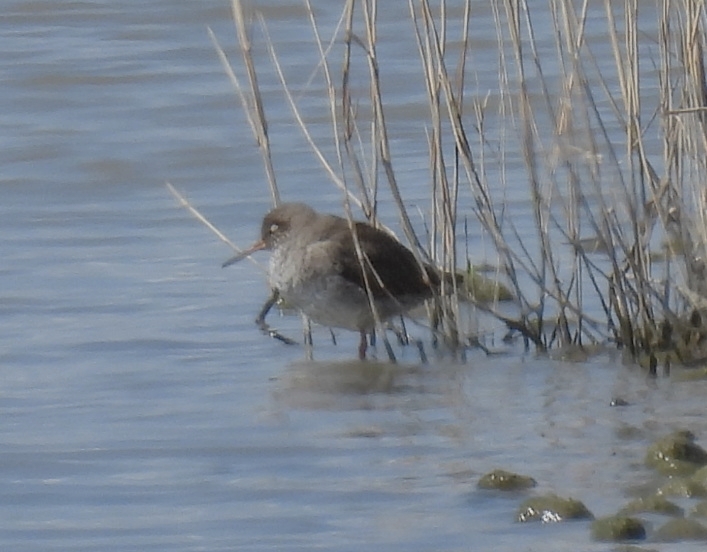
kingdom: Animalia
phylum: Chordata
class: Aves
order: Charadriiformes
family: Scolopacidae
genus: Tringa
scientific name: Tringa totanus
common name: Common redshank
